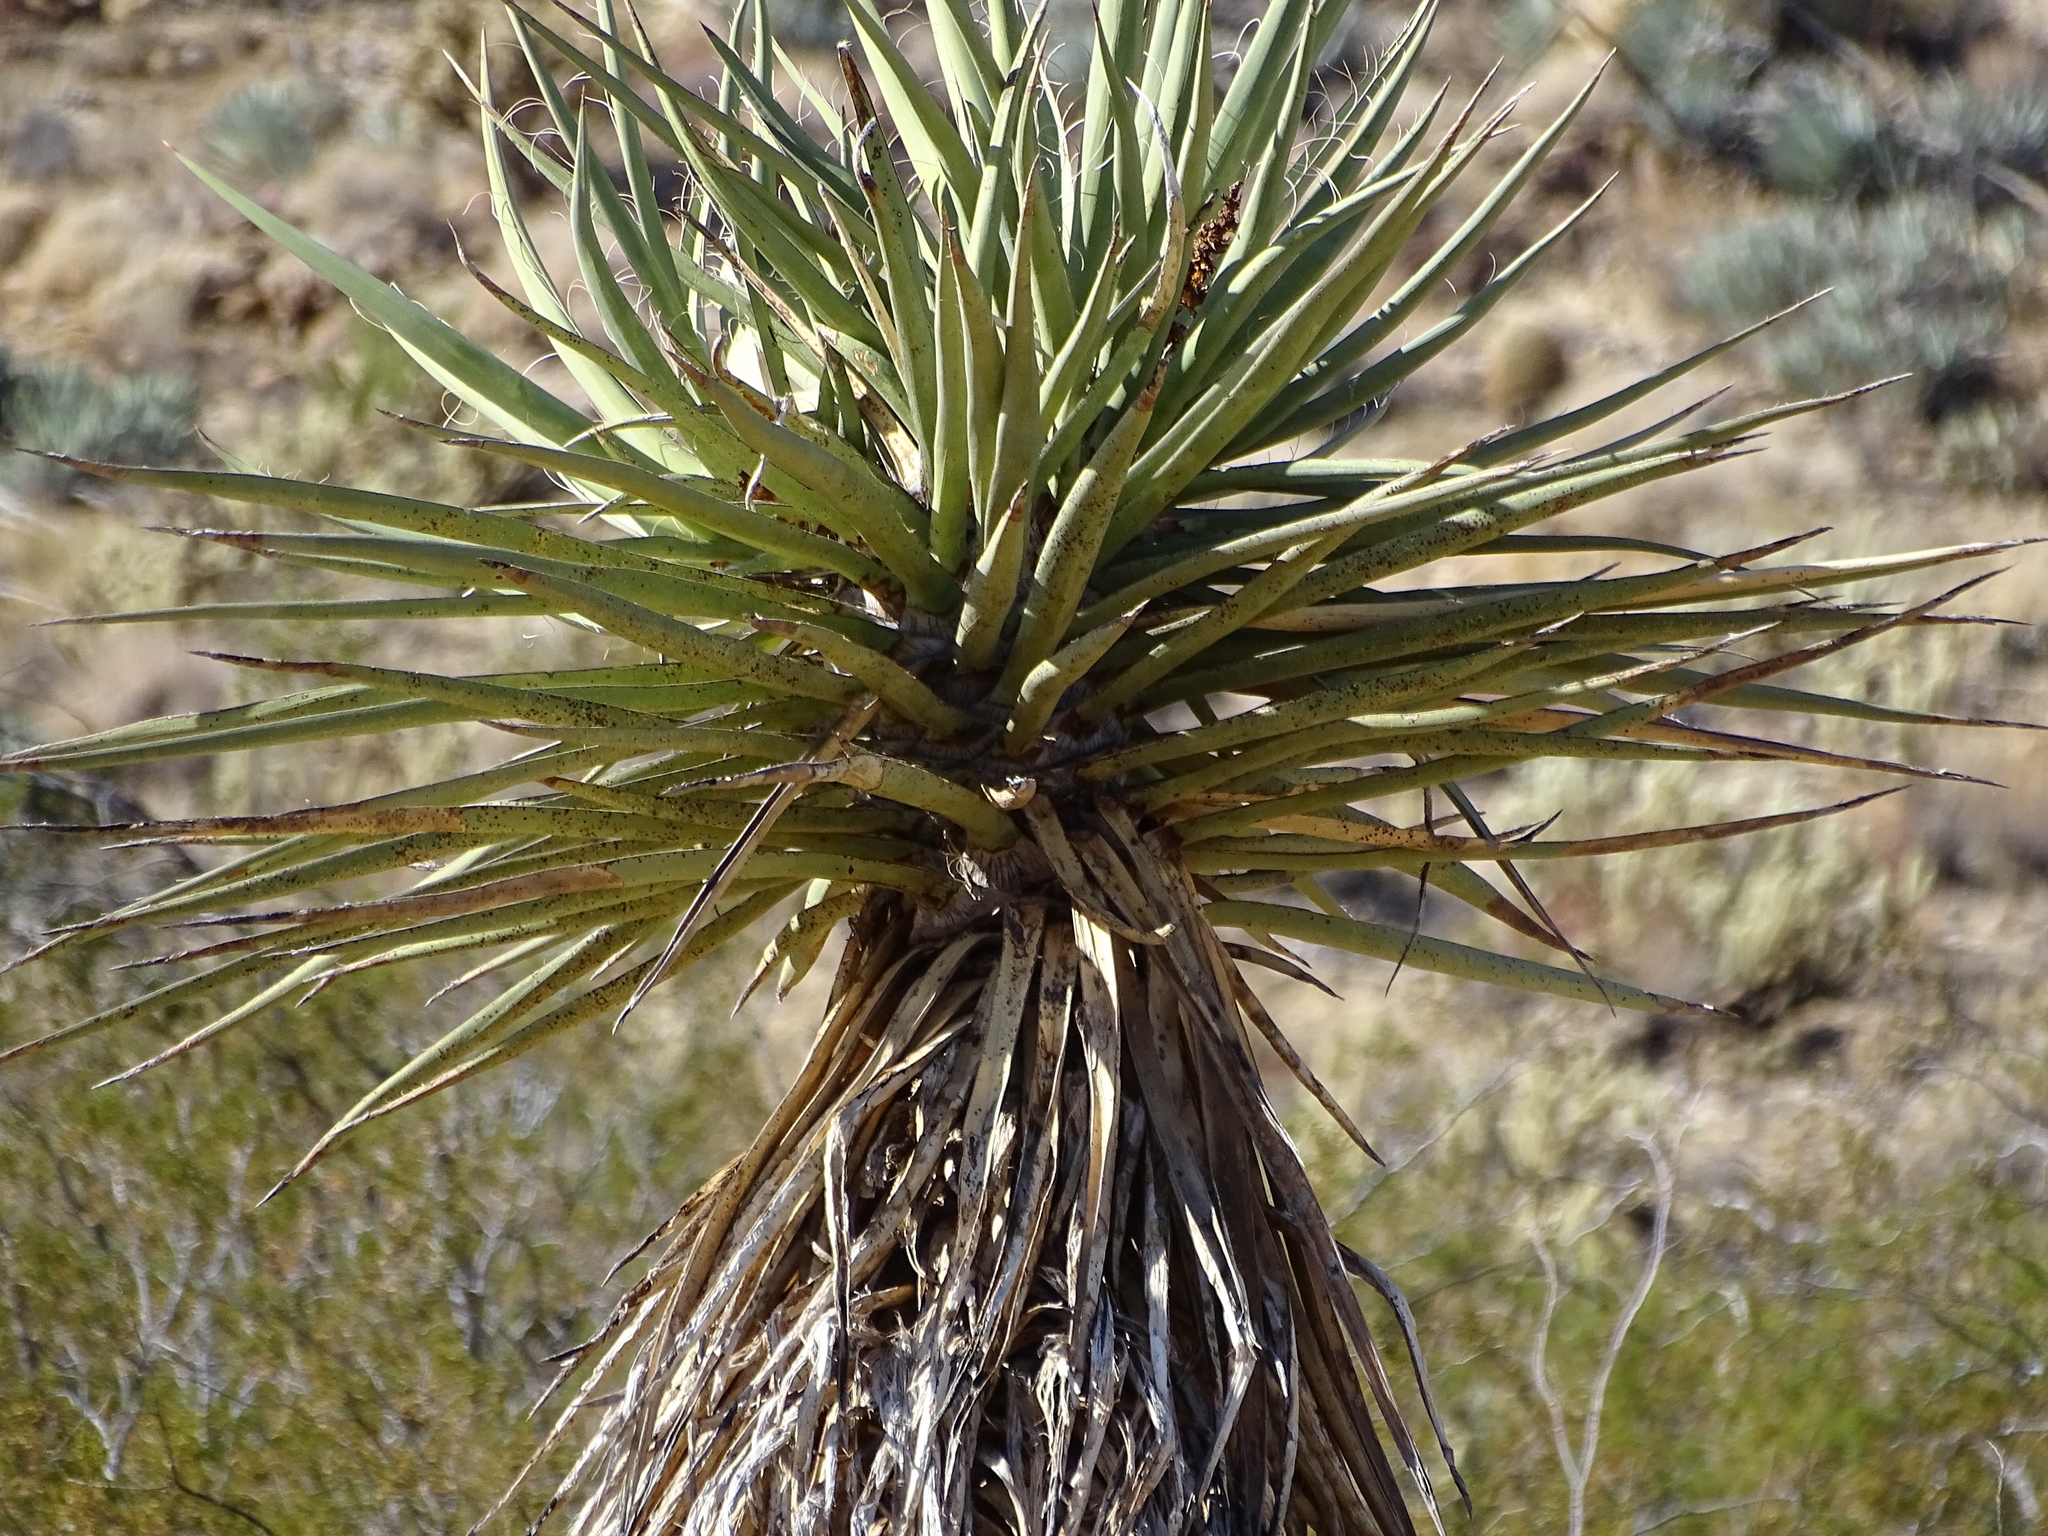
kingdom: Plantae
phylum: Tracheophyta
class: Liliopsida
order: Asparagales
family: Asparagaceae
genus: Yucca
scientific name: Yucca schidigera
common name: Mojave yucca
